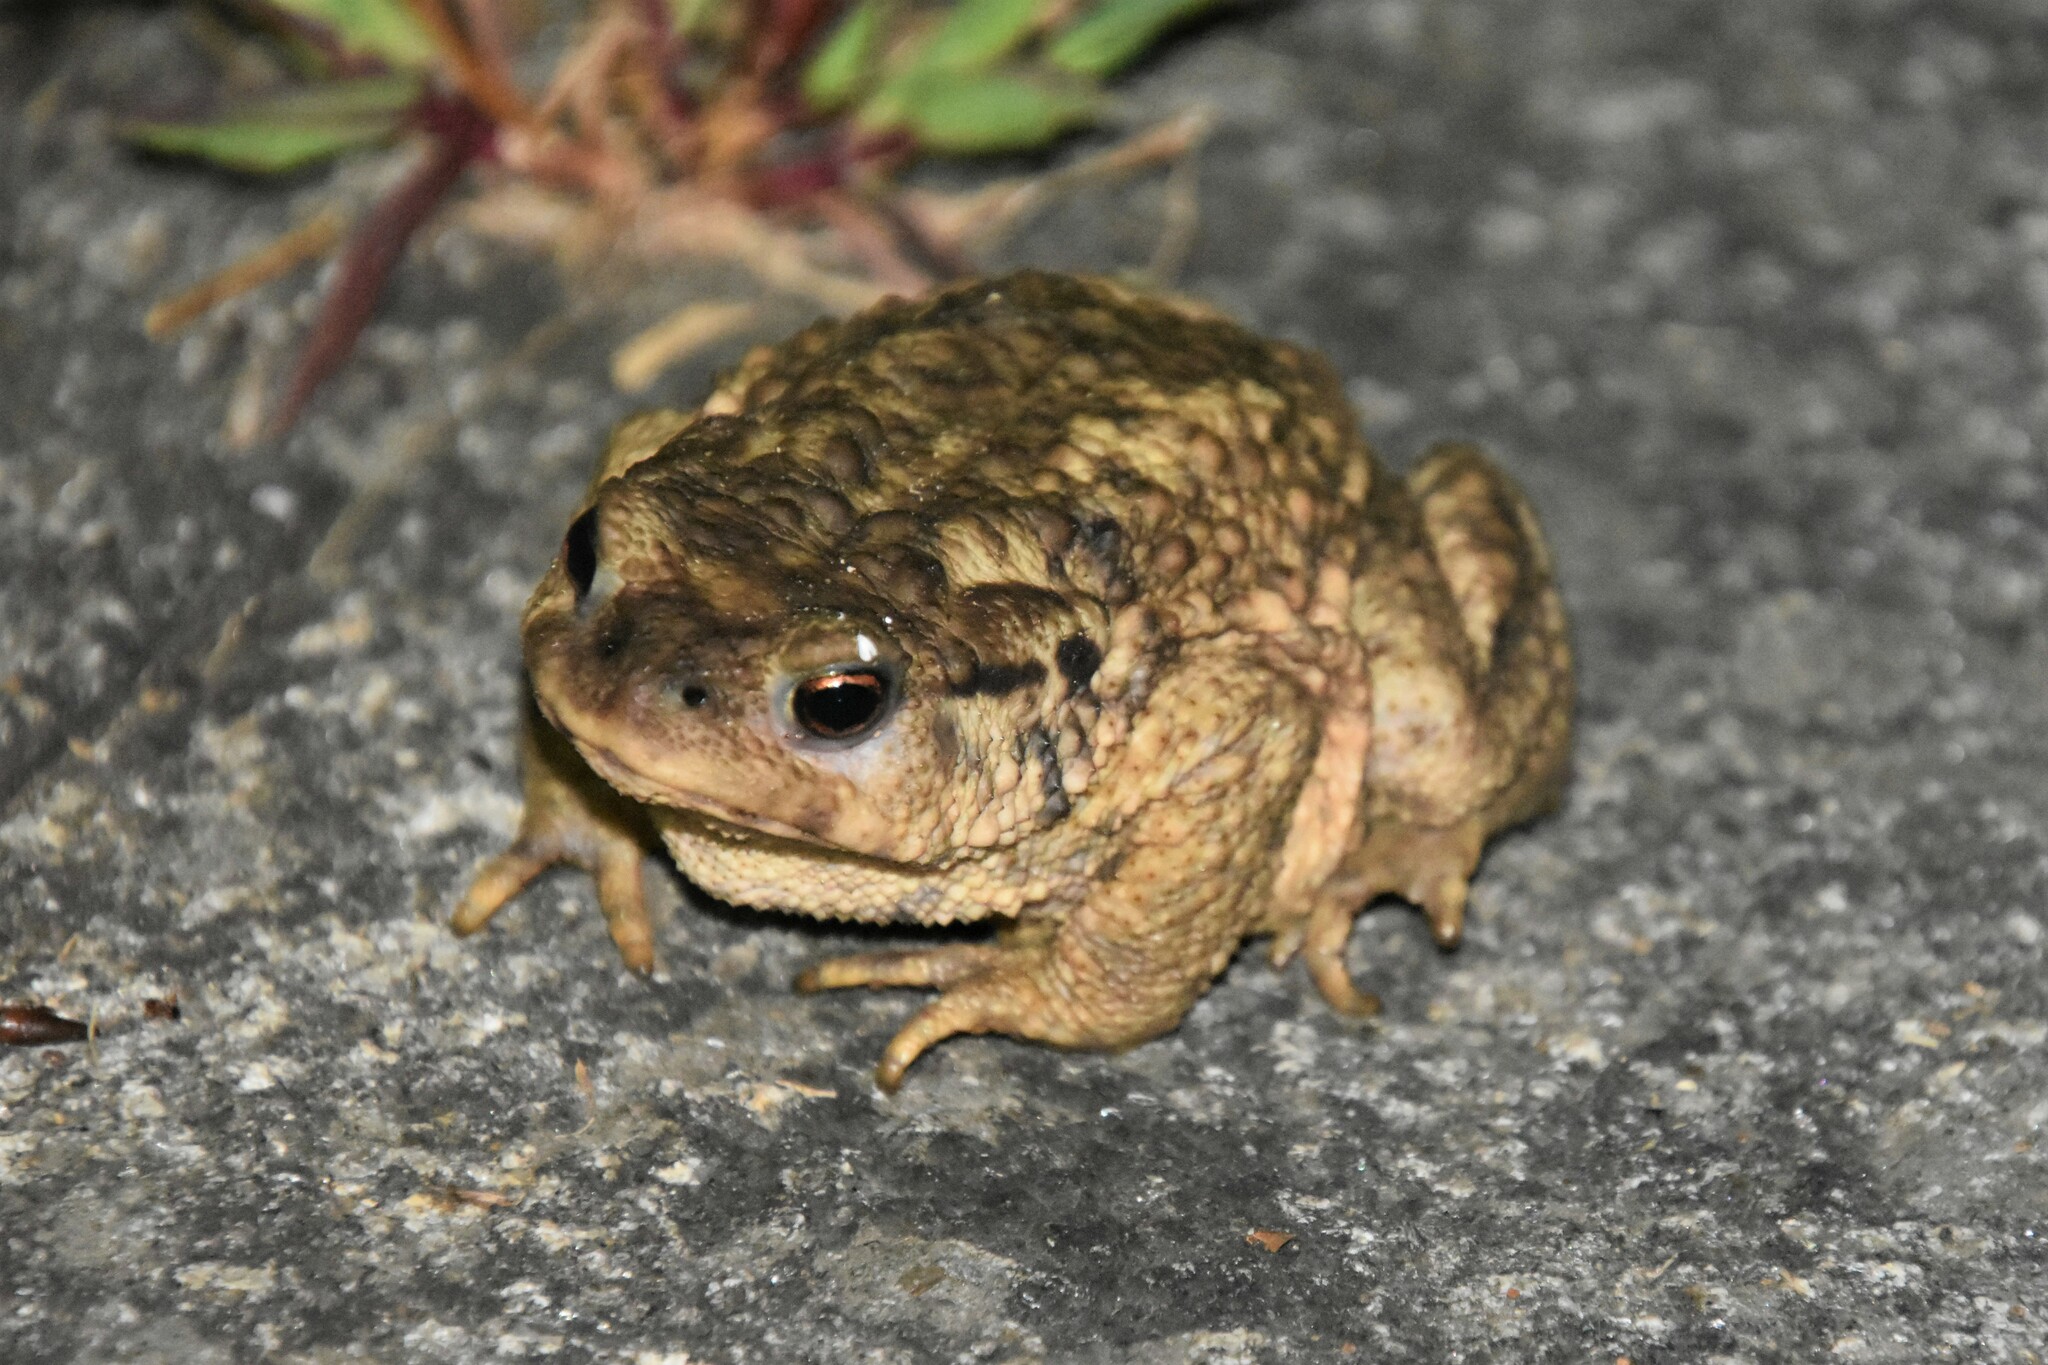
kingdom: Animalia
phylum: Chordata
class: Amphibia
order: Anura
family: Bufonidae
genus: Bufo
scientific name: Bufo spinosus
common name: Western common toad
